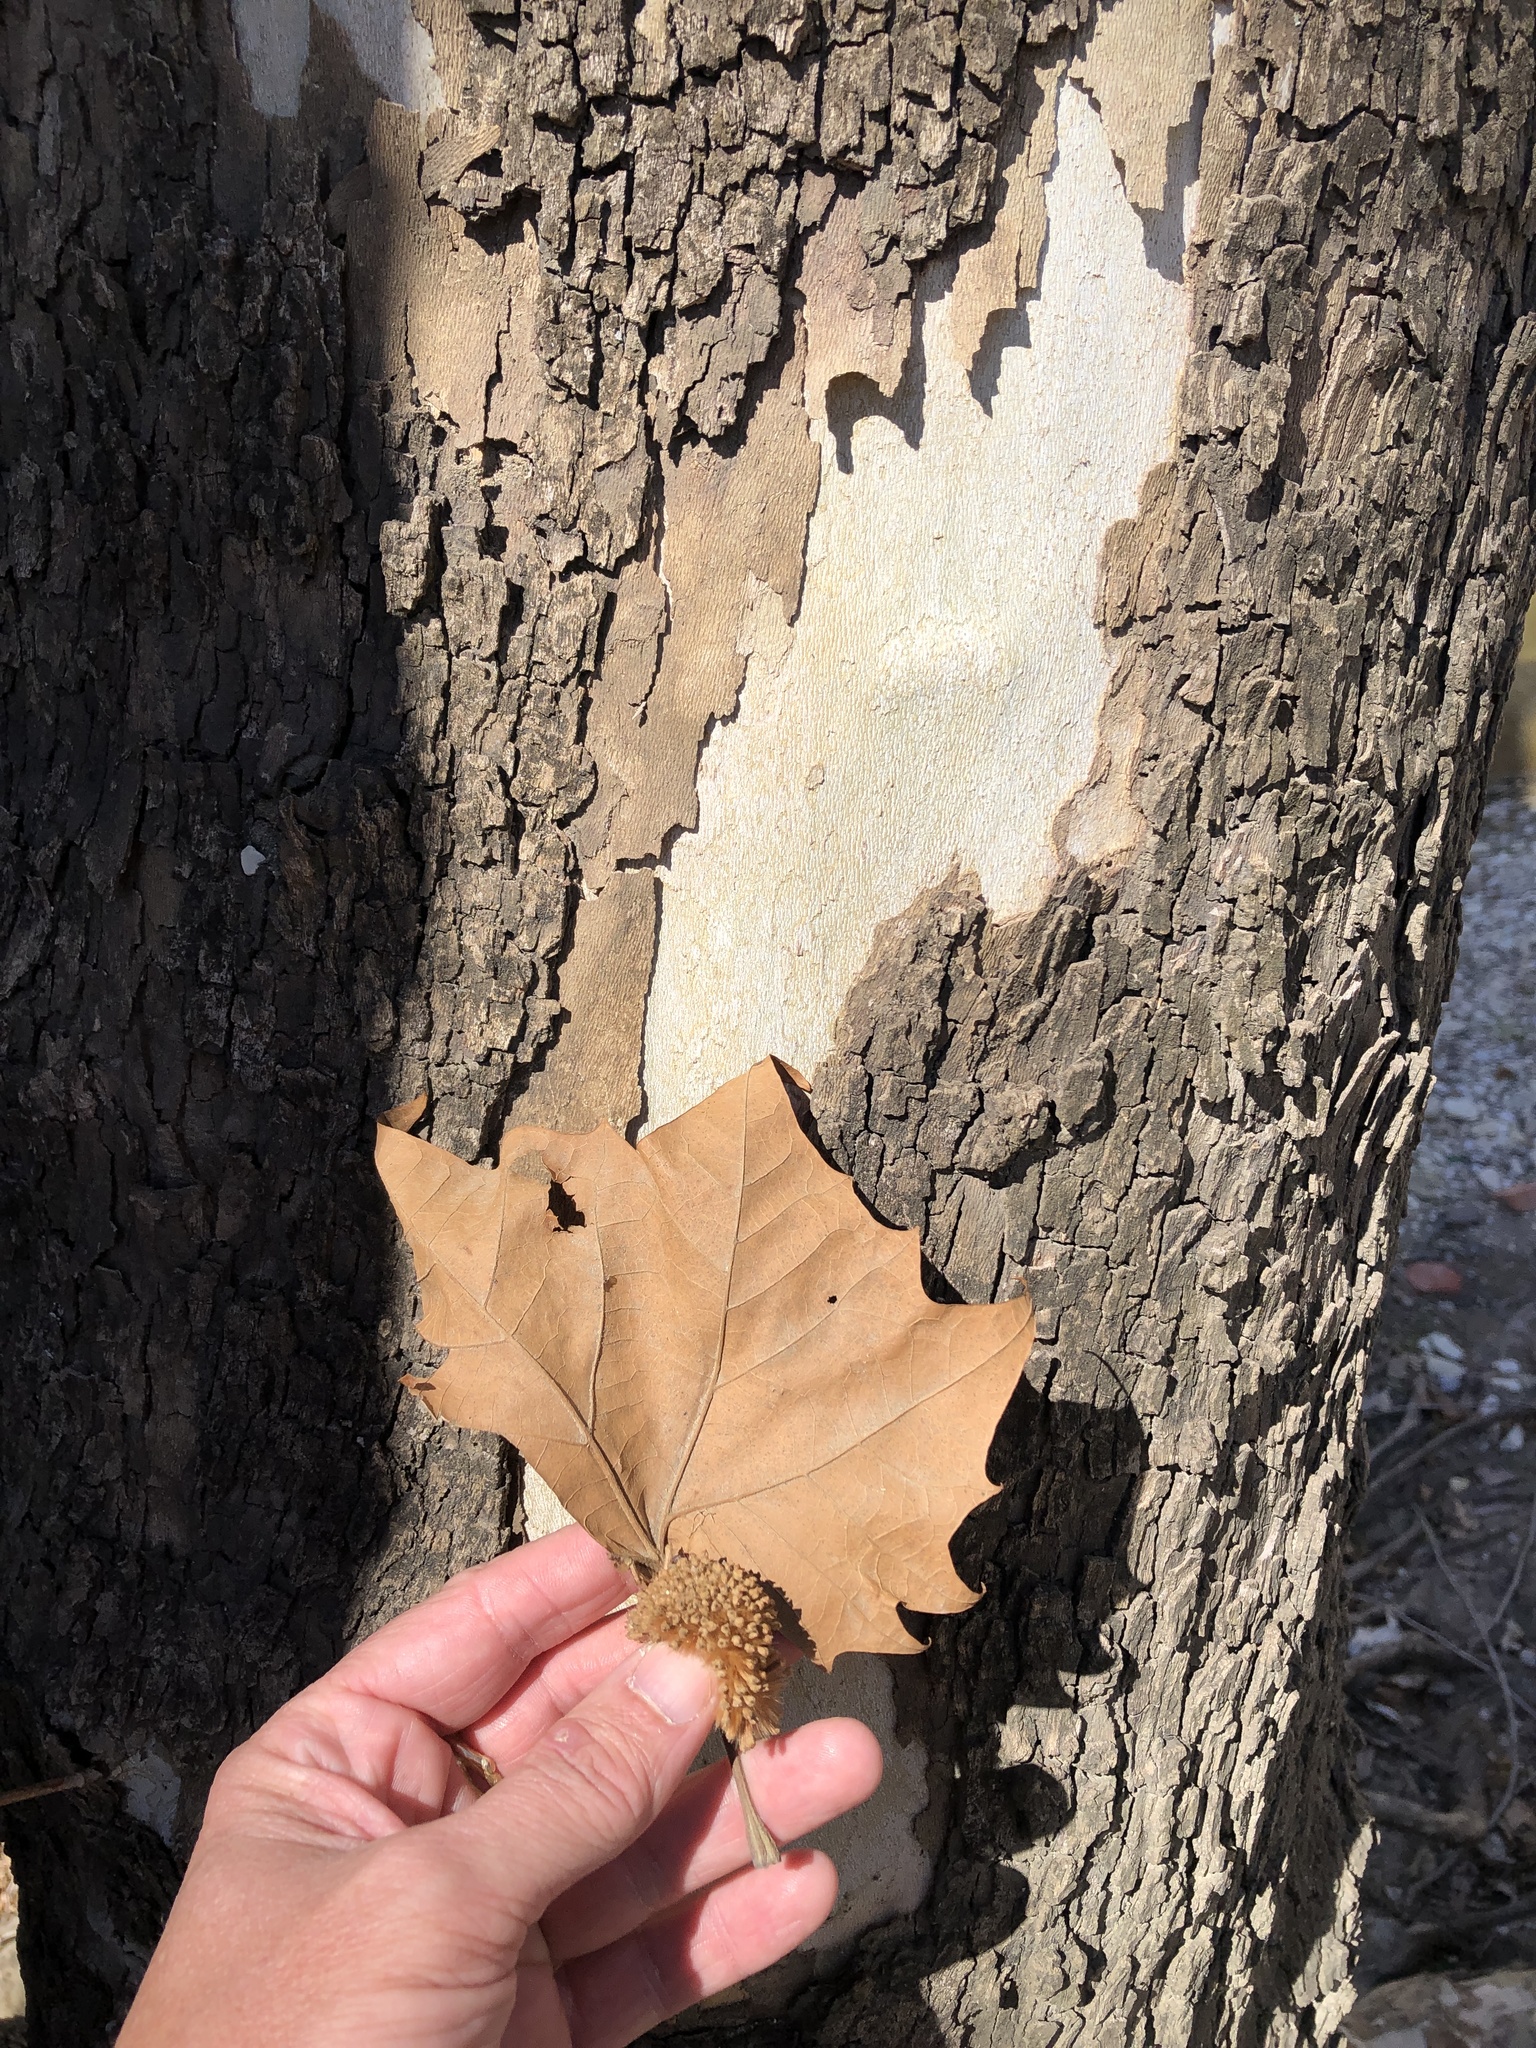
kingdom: Plantae
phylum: Tracheophyta
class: Magnoliopsida
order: Proteales
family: Platanaceae
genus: Platanus
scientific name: Platanus occidentalis
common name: American sycamore
